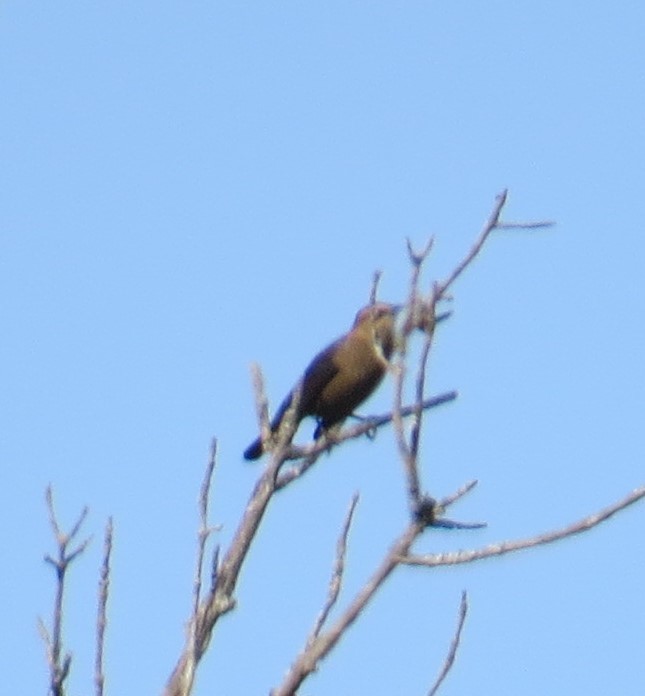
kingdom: Animalia
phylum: Chordata
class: Aves
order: Passeriformes
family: Icteridae
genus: Euphagus
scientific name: Euphagus carolinus
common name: Rusty blackbird
